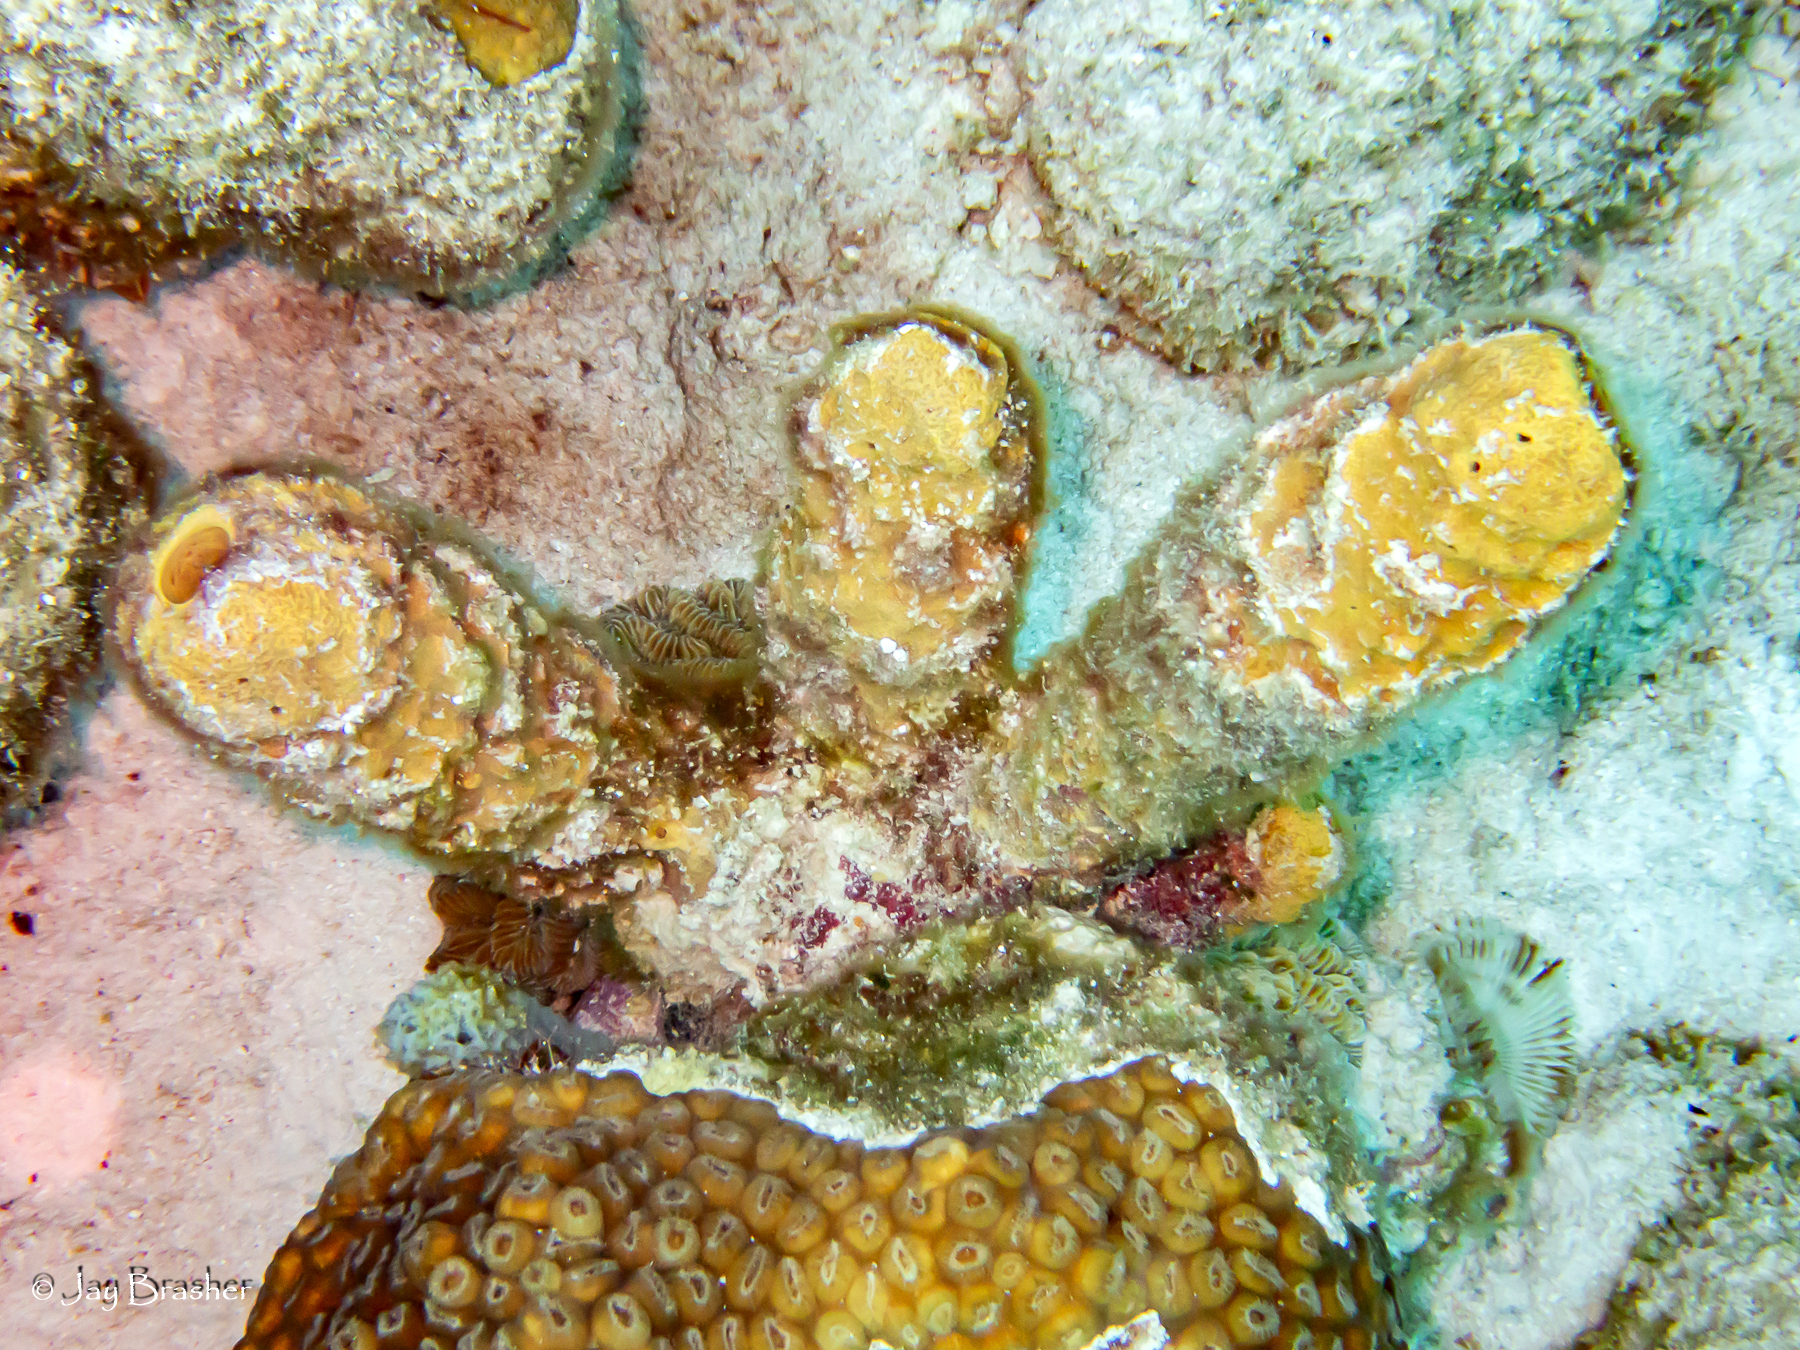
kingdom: Animalia
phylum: Porifera
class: Demospongiae
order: Verongiida
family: Aplysinidae
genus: Aplysina
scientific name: Aplysina archeri
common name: Stove-pipe sponge
